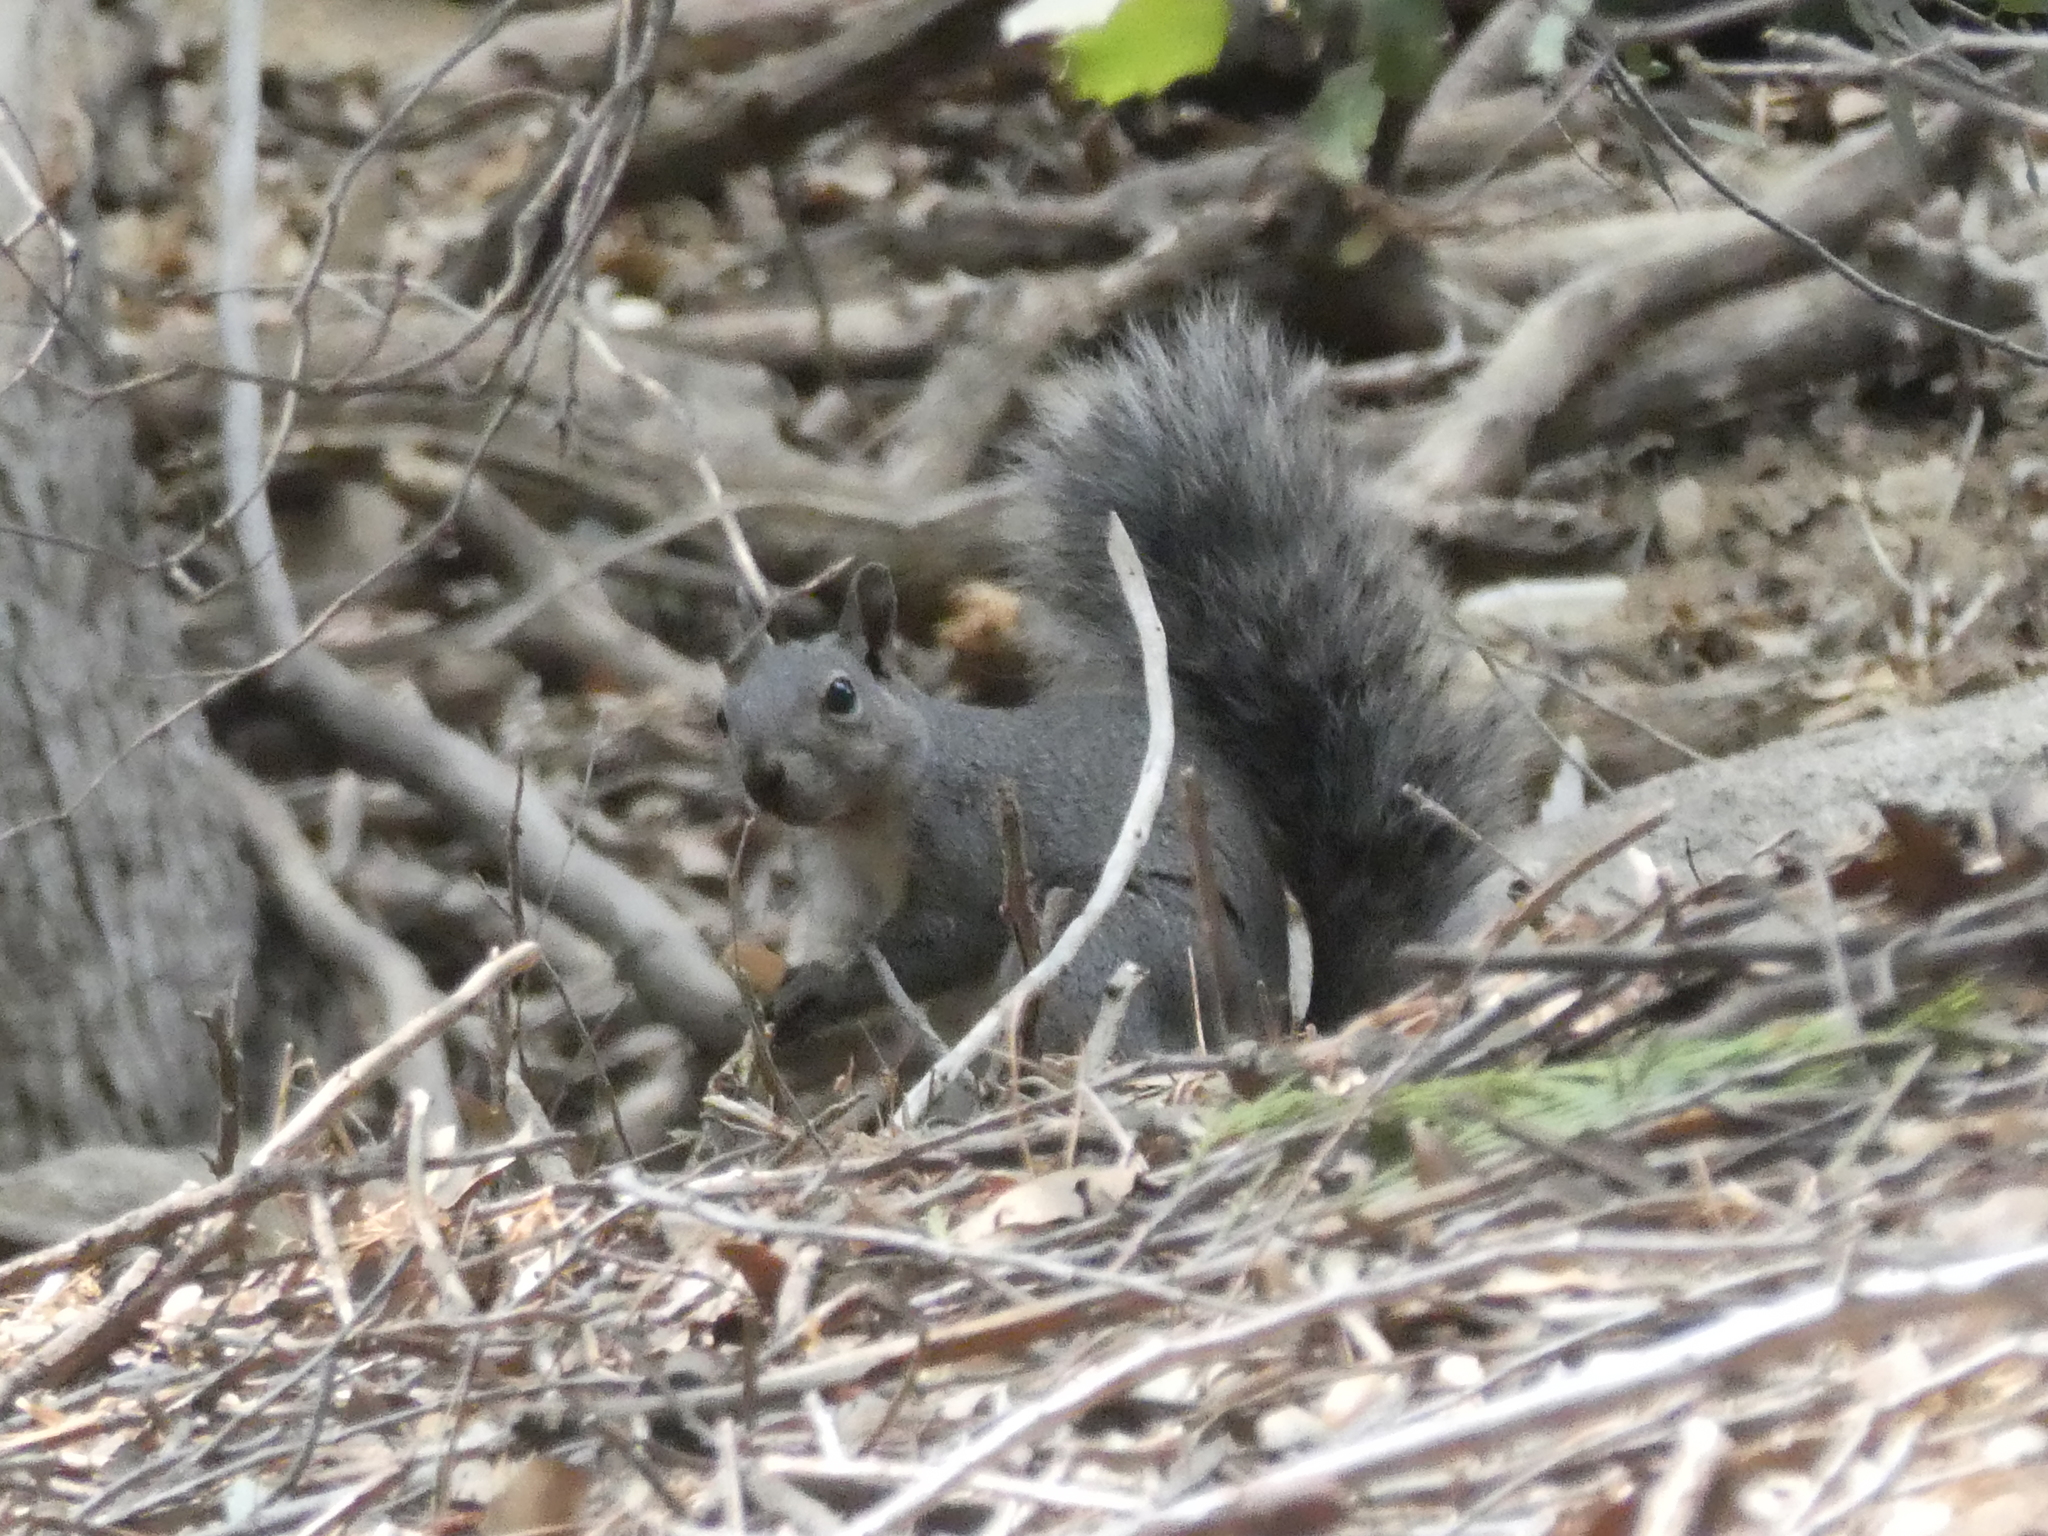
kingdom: Animalia
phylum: Chordata
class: Mammalia
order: Rodentia
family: Sciuridae
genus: Sciurus
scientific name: Sciurus griseus
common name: Western gray squirrel
